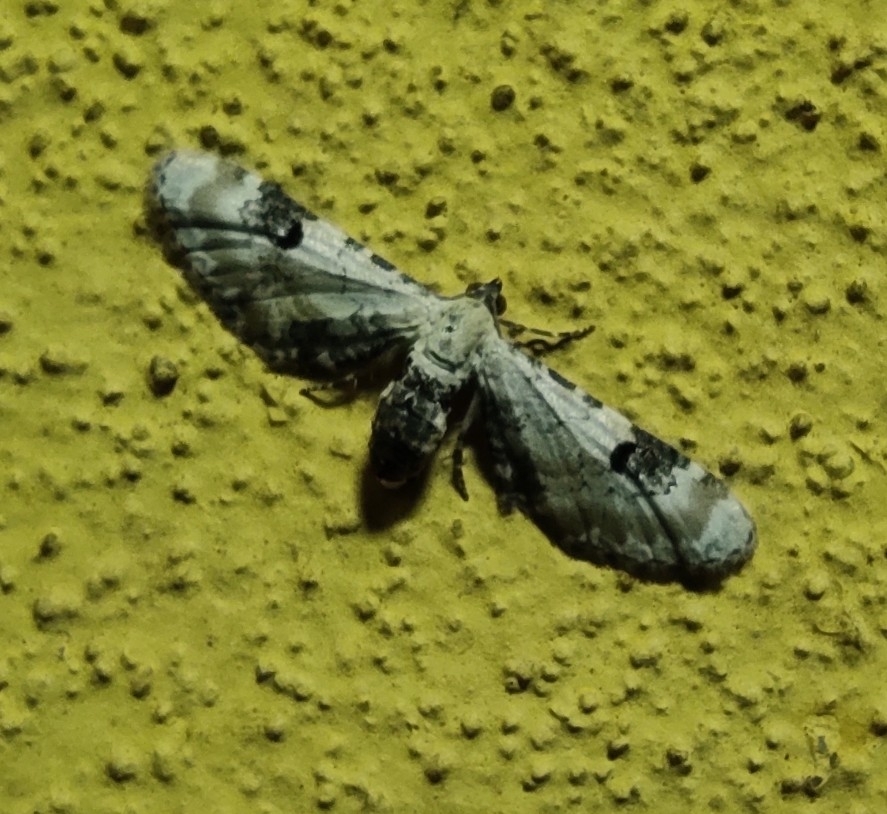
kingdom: Animalia
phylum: Arthropoda
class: Insecta
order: Lepidoptera
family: Geometridae
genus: Eupithecia
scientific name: Eupithecia centaureata
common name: Lime-speck pug
